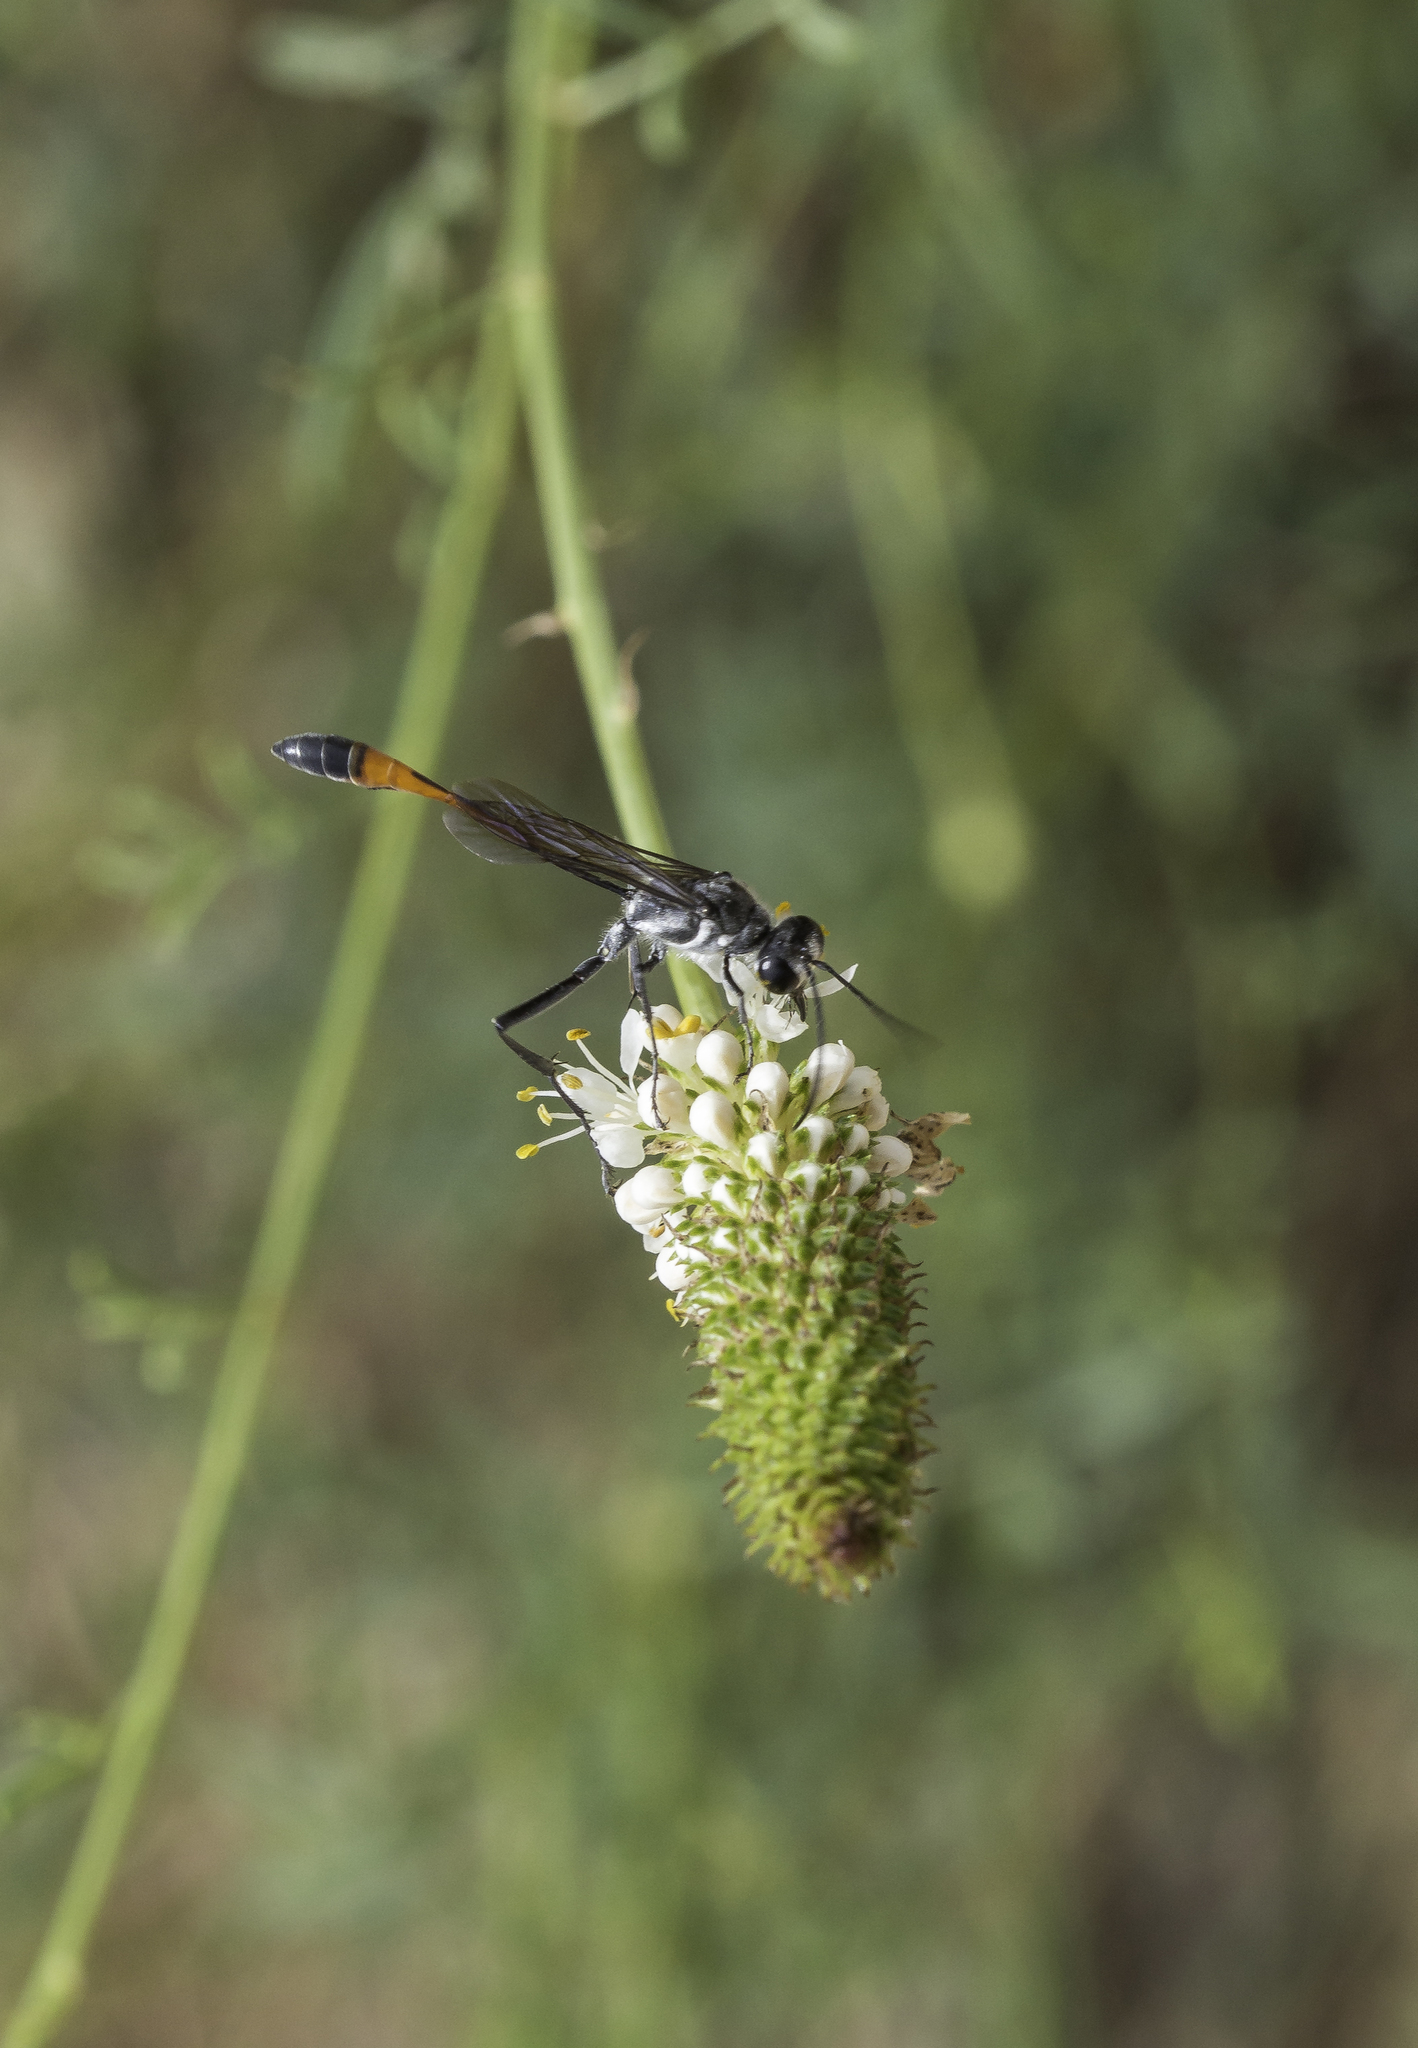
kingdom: Animalia
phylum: Arthropoda
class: Insecta
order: Hymenoptera
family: Sphecidae
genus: Ammophila
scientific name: Ammophila
